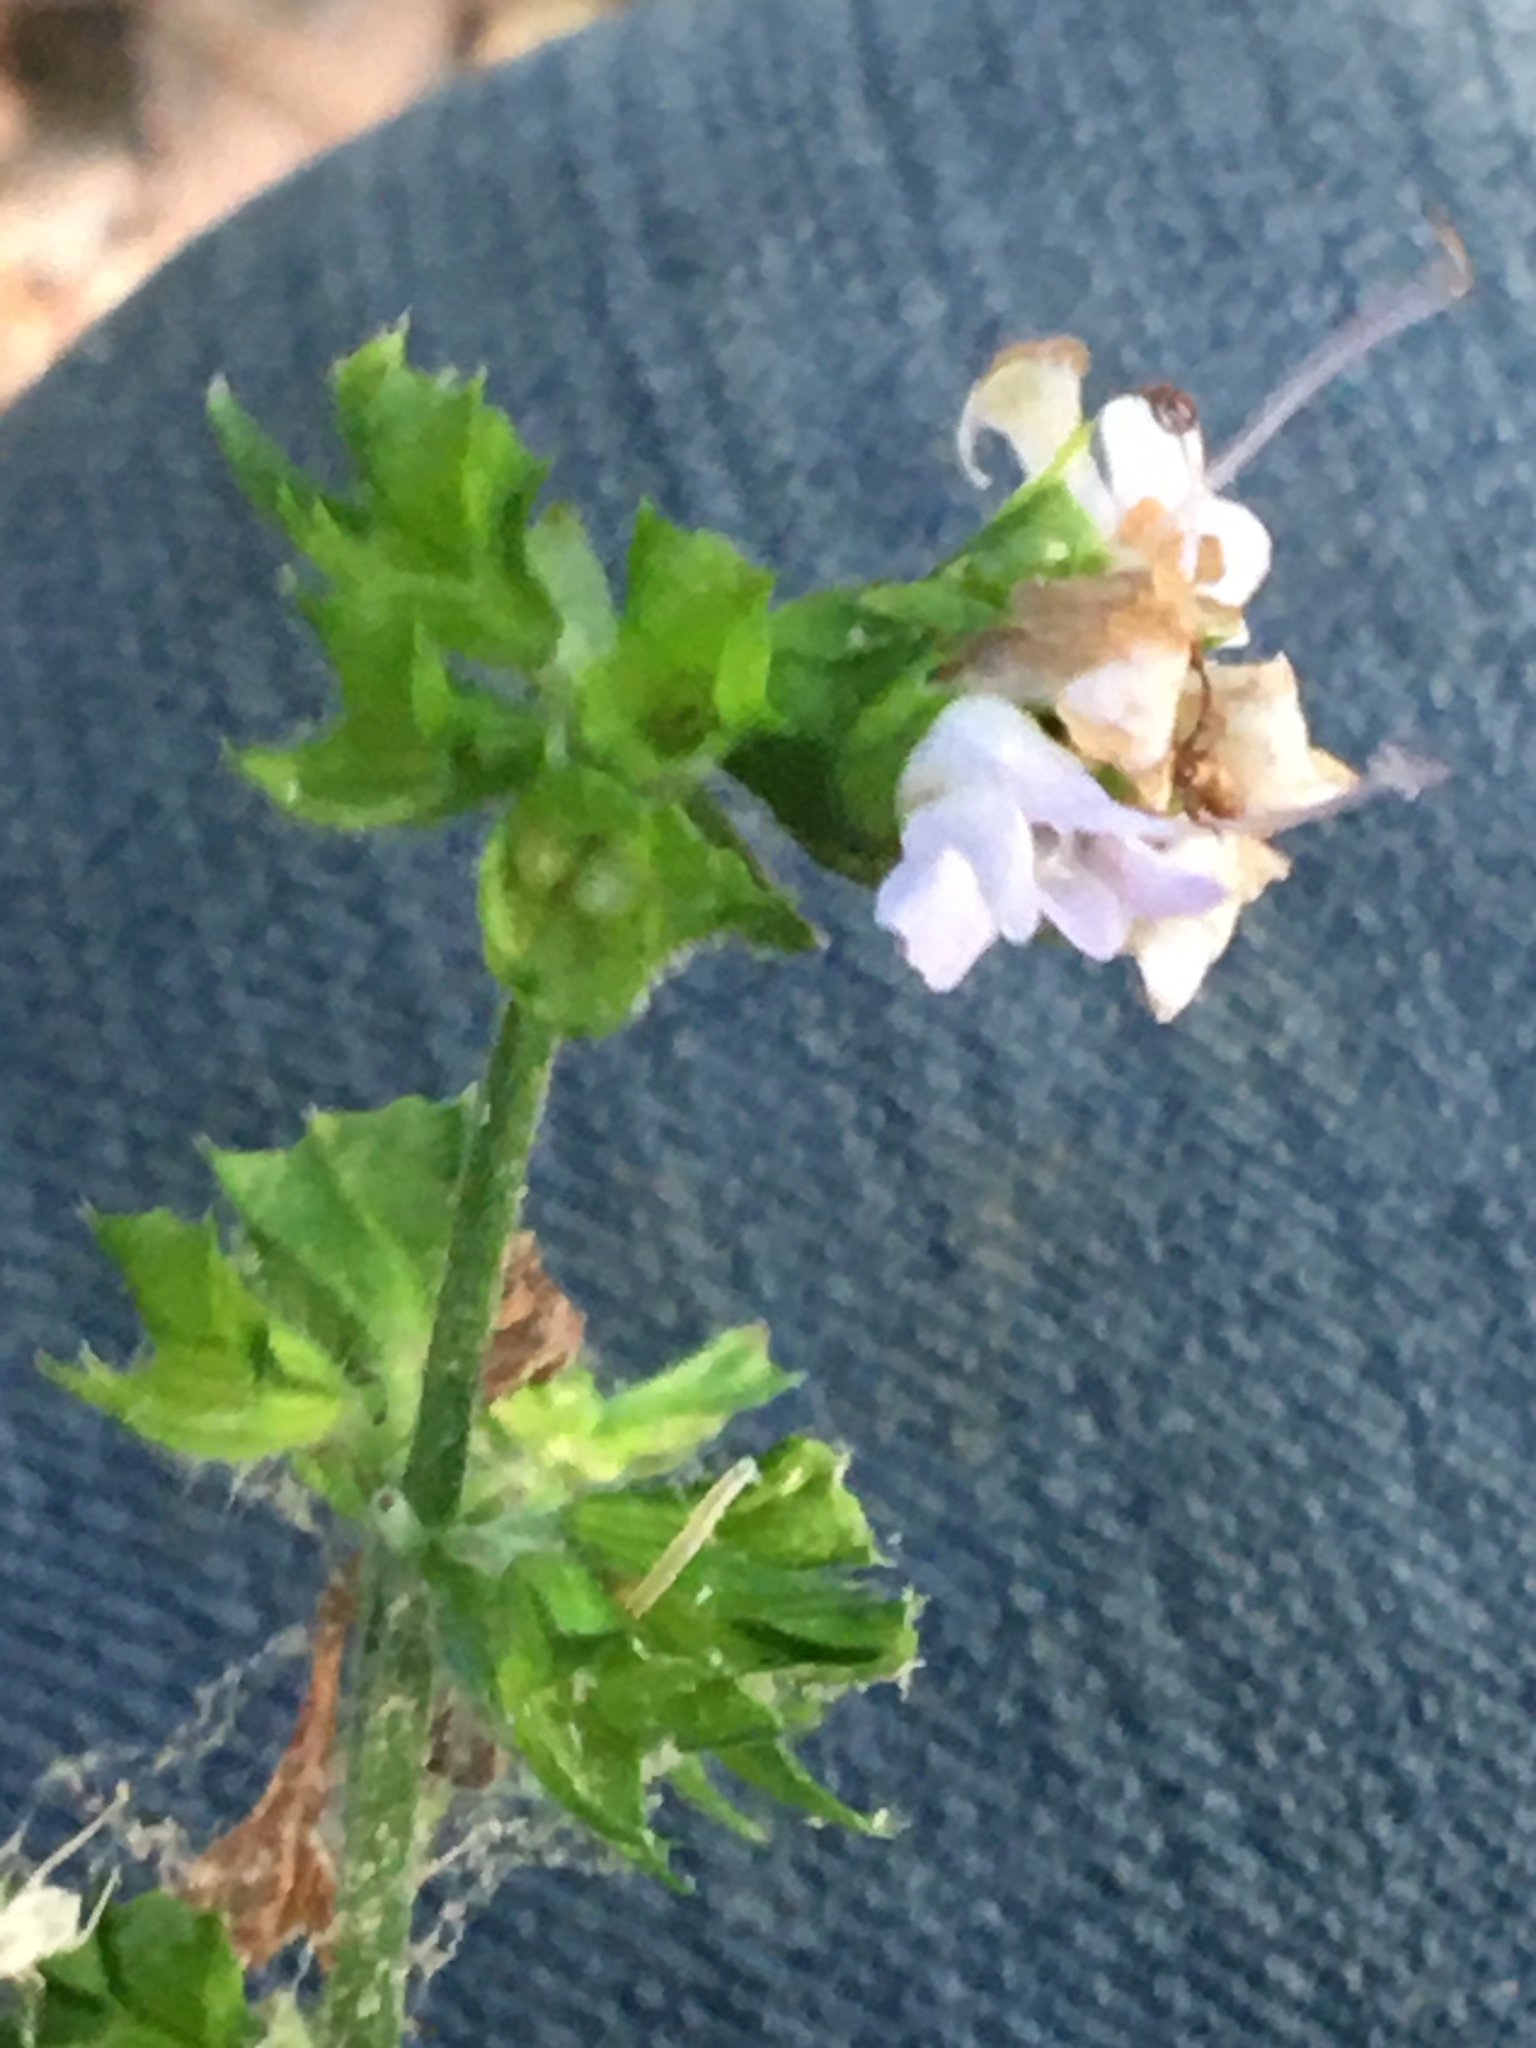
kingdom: Plantae
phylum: Tracheophyta
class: Magnoliopsida
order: Lamiales
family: Lamiaceae
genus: Salvia
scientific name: Salvia lyrata
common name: Cancerweed
